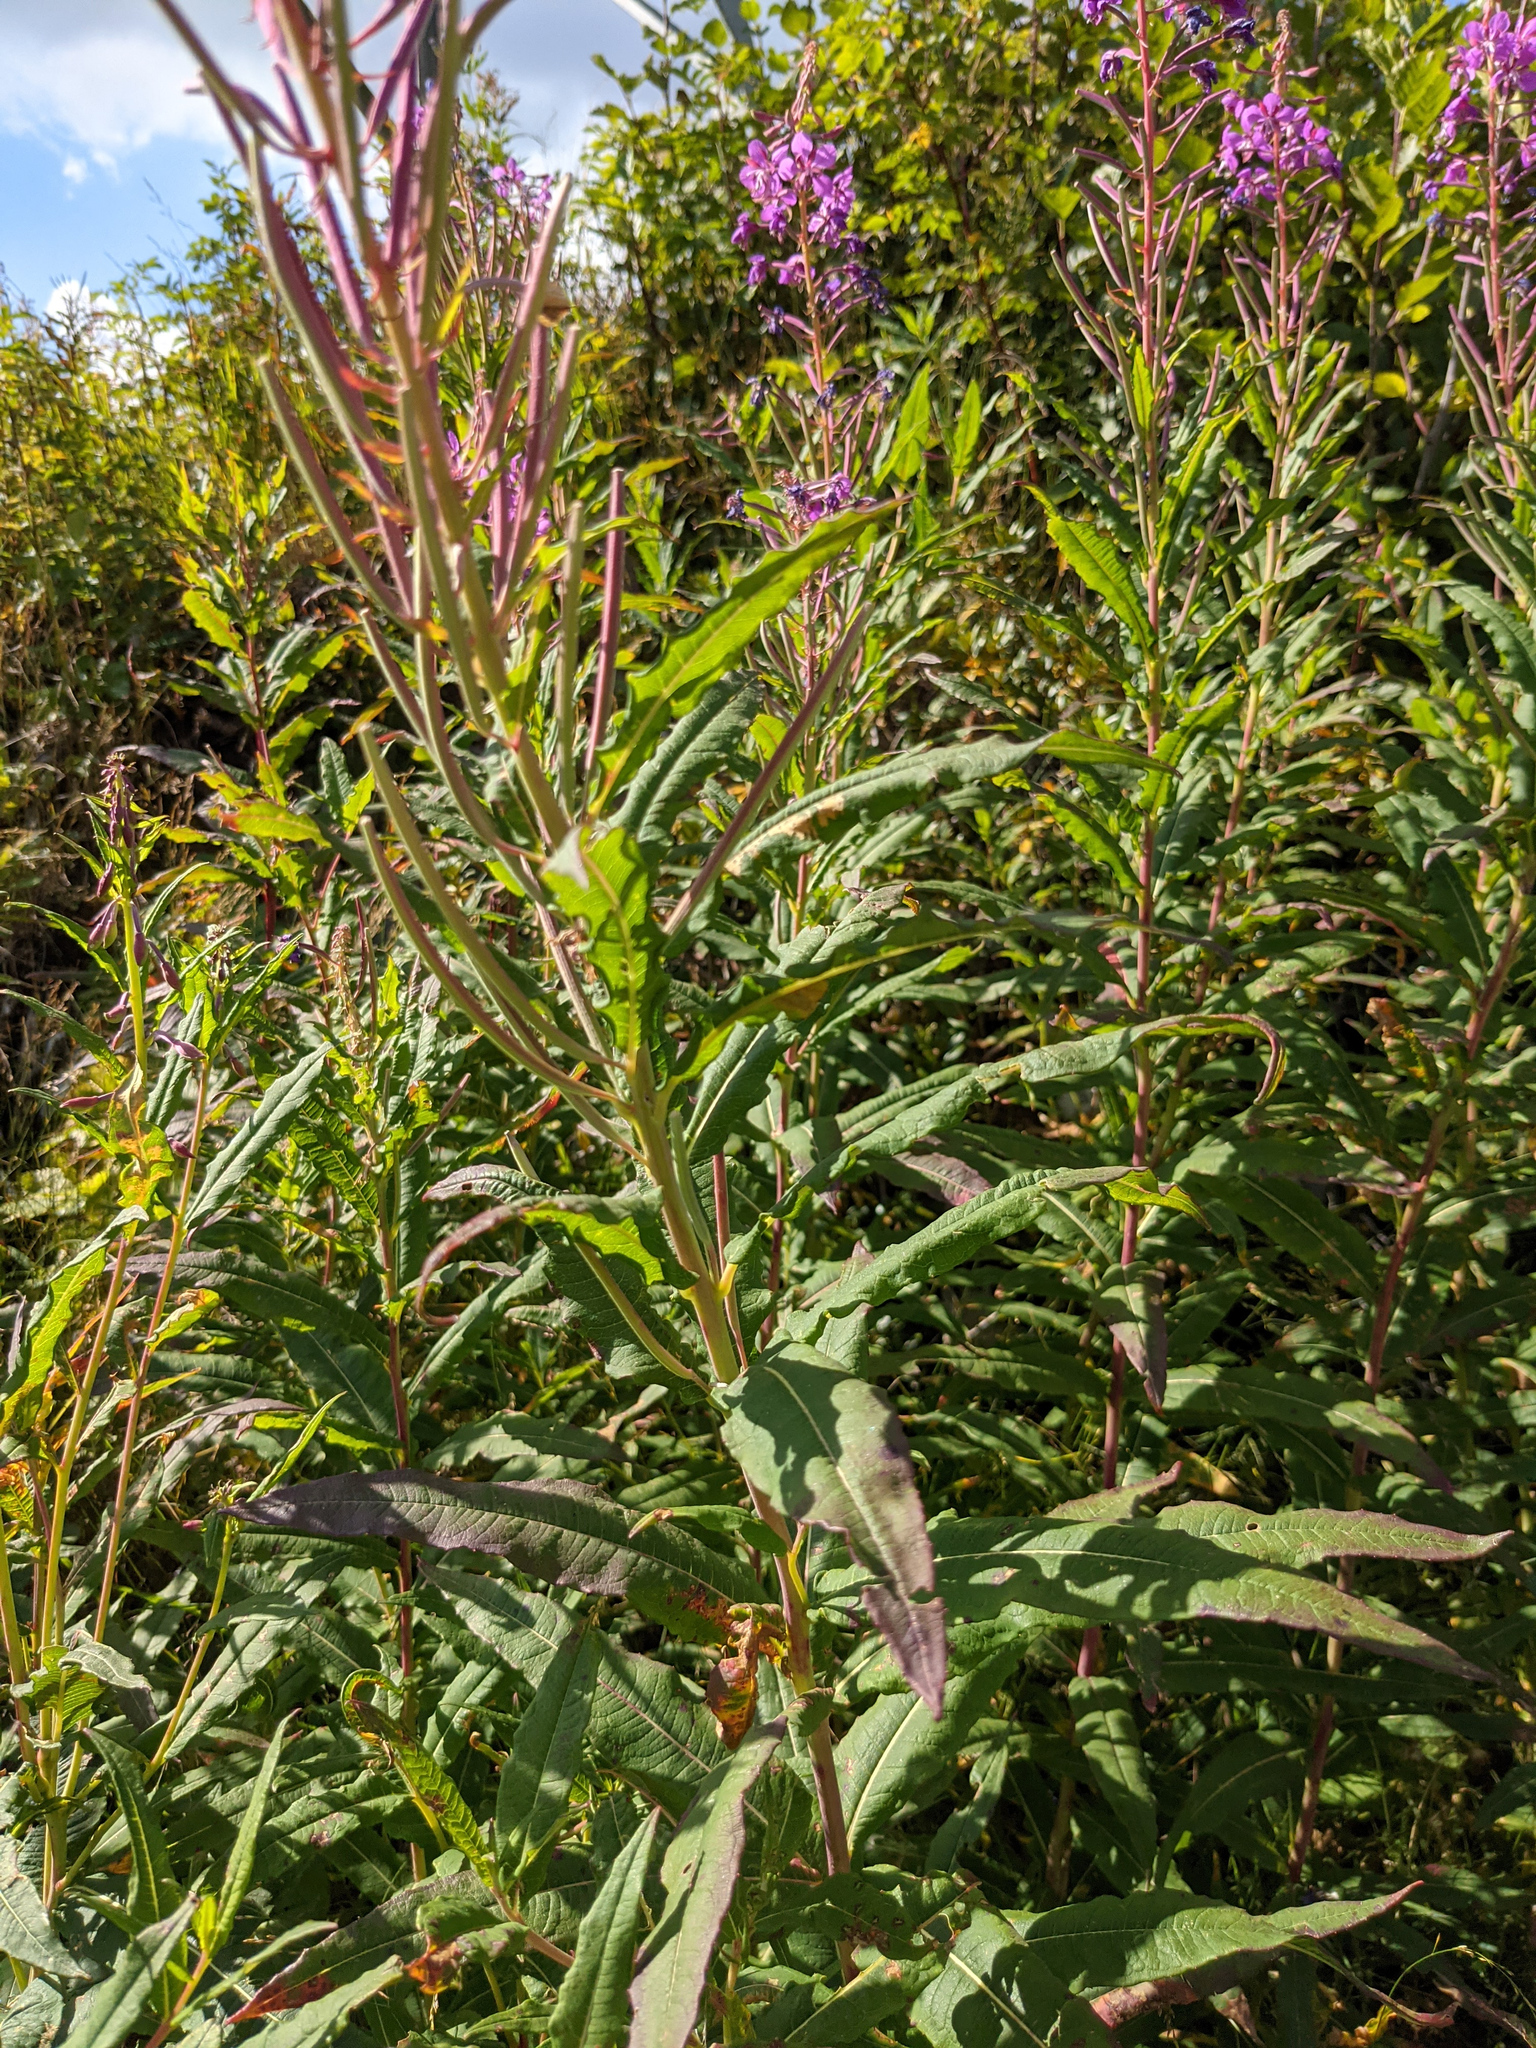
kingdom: Plantae
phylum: Tracheophyta
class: Magnoliopsida
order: Myrtales
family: Onagraceae
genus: Chamaenerion
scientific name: Chamaenerion angustifolium
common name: Fireweed
